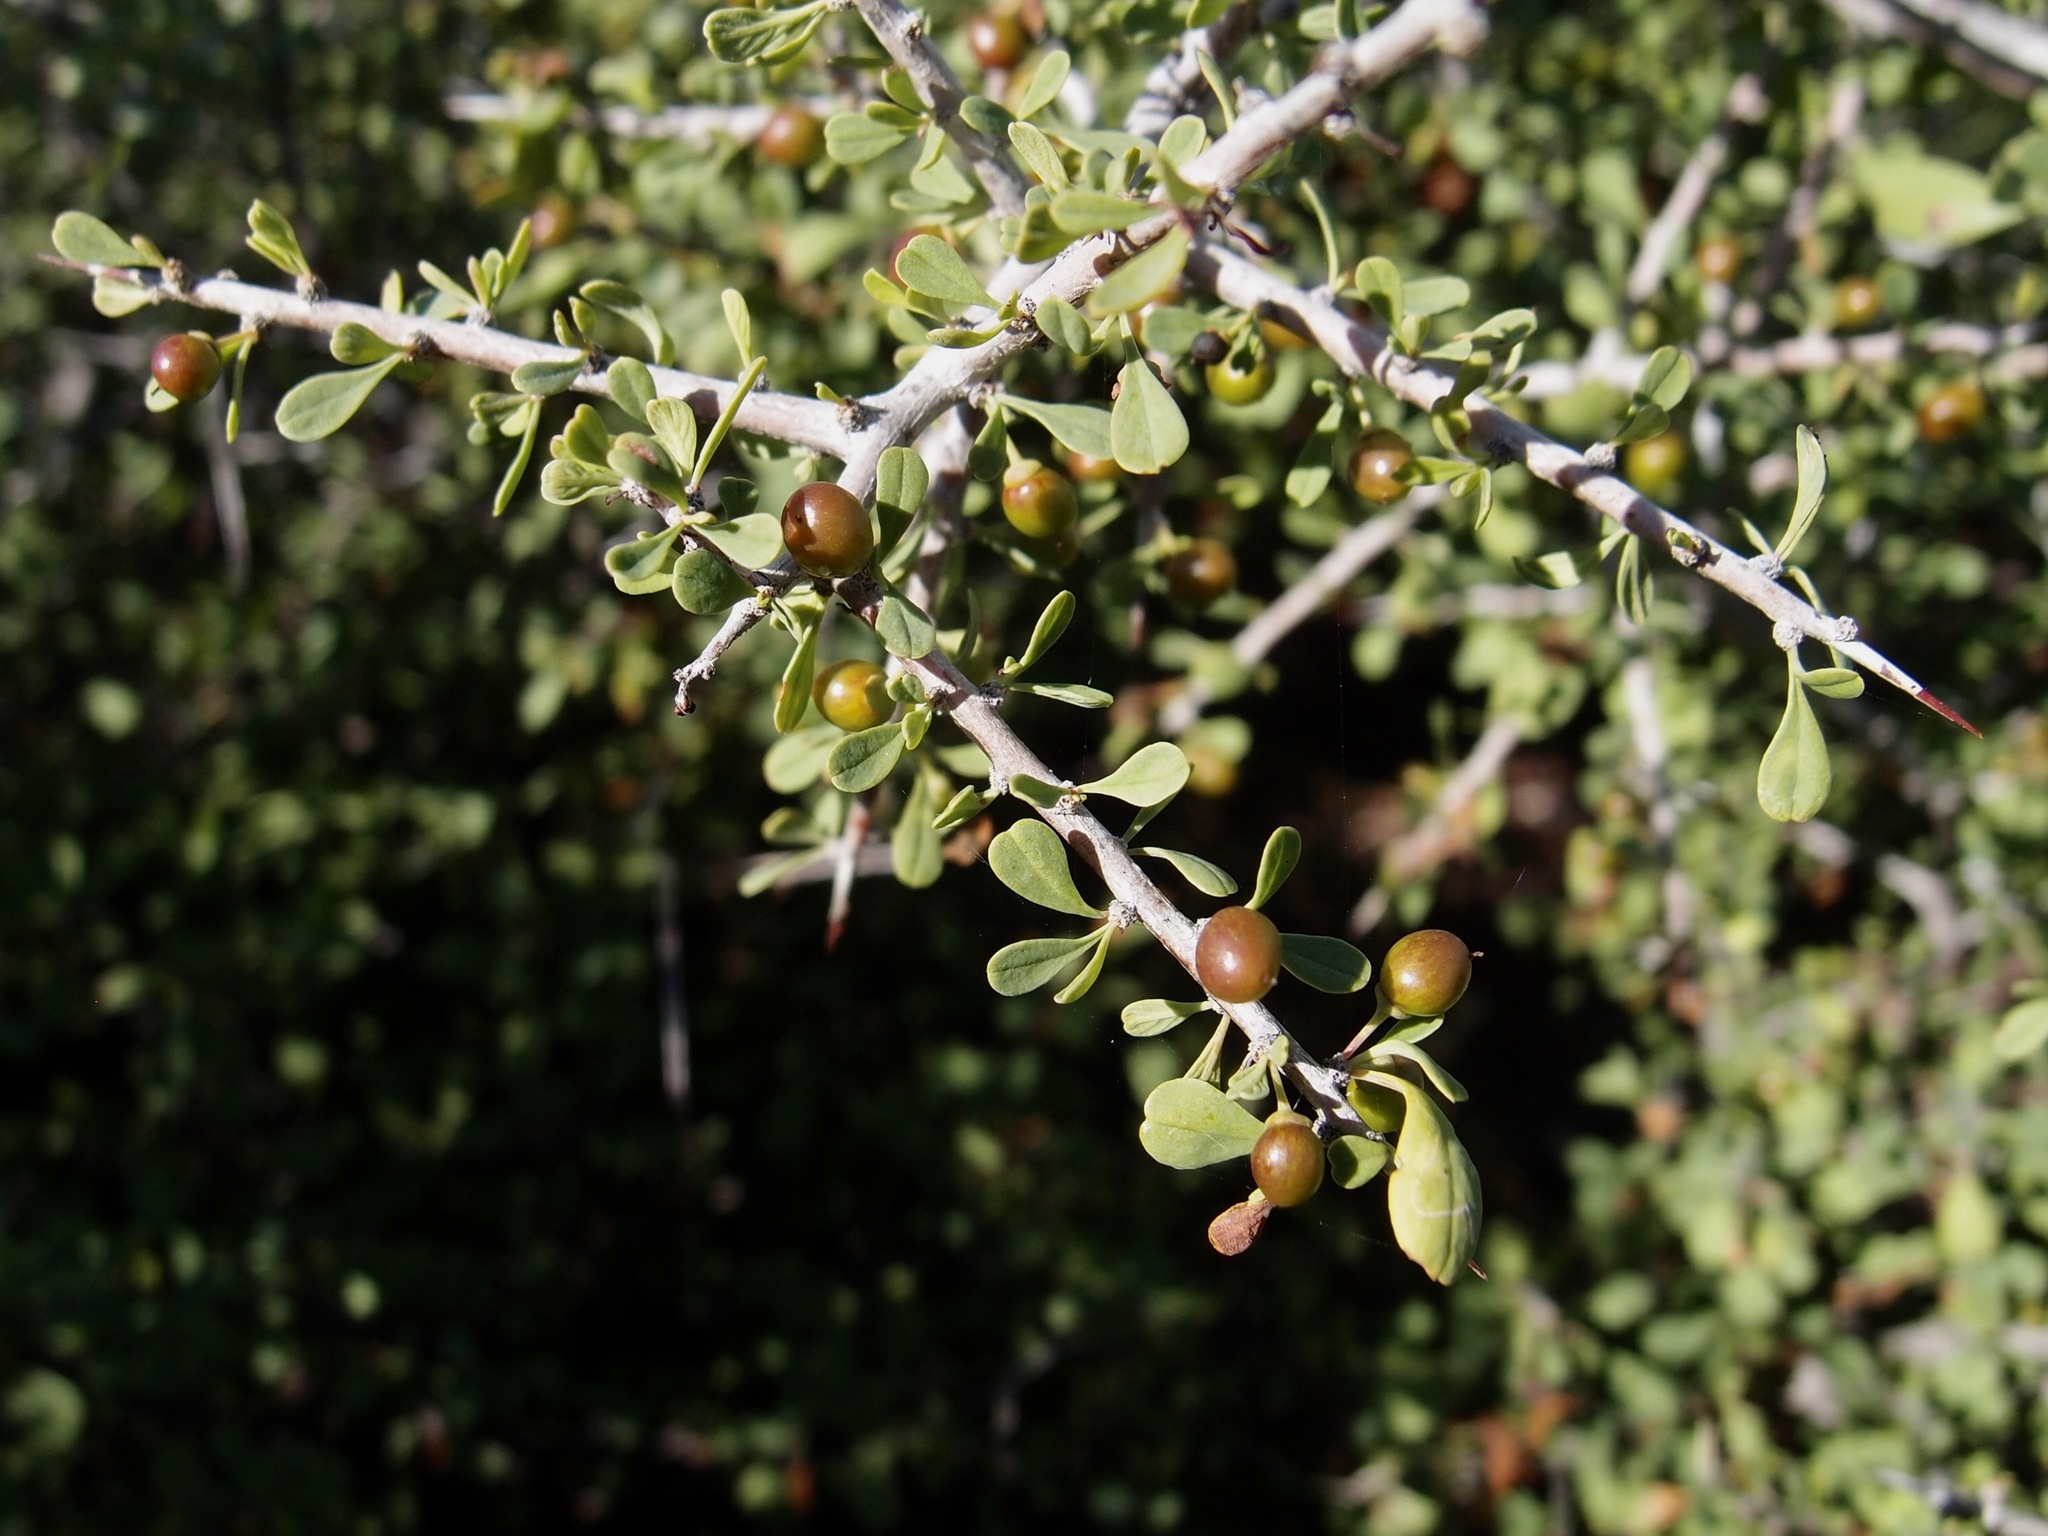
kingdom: Plantae
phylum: Tracheophyta
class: Magnoliopsida
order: Rosales
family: Rhamnaceae
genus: Condalia
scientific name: Condalia globosa
